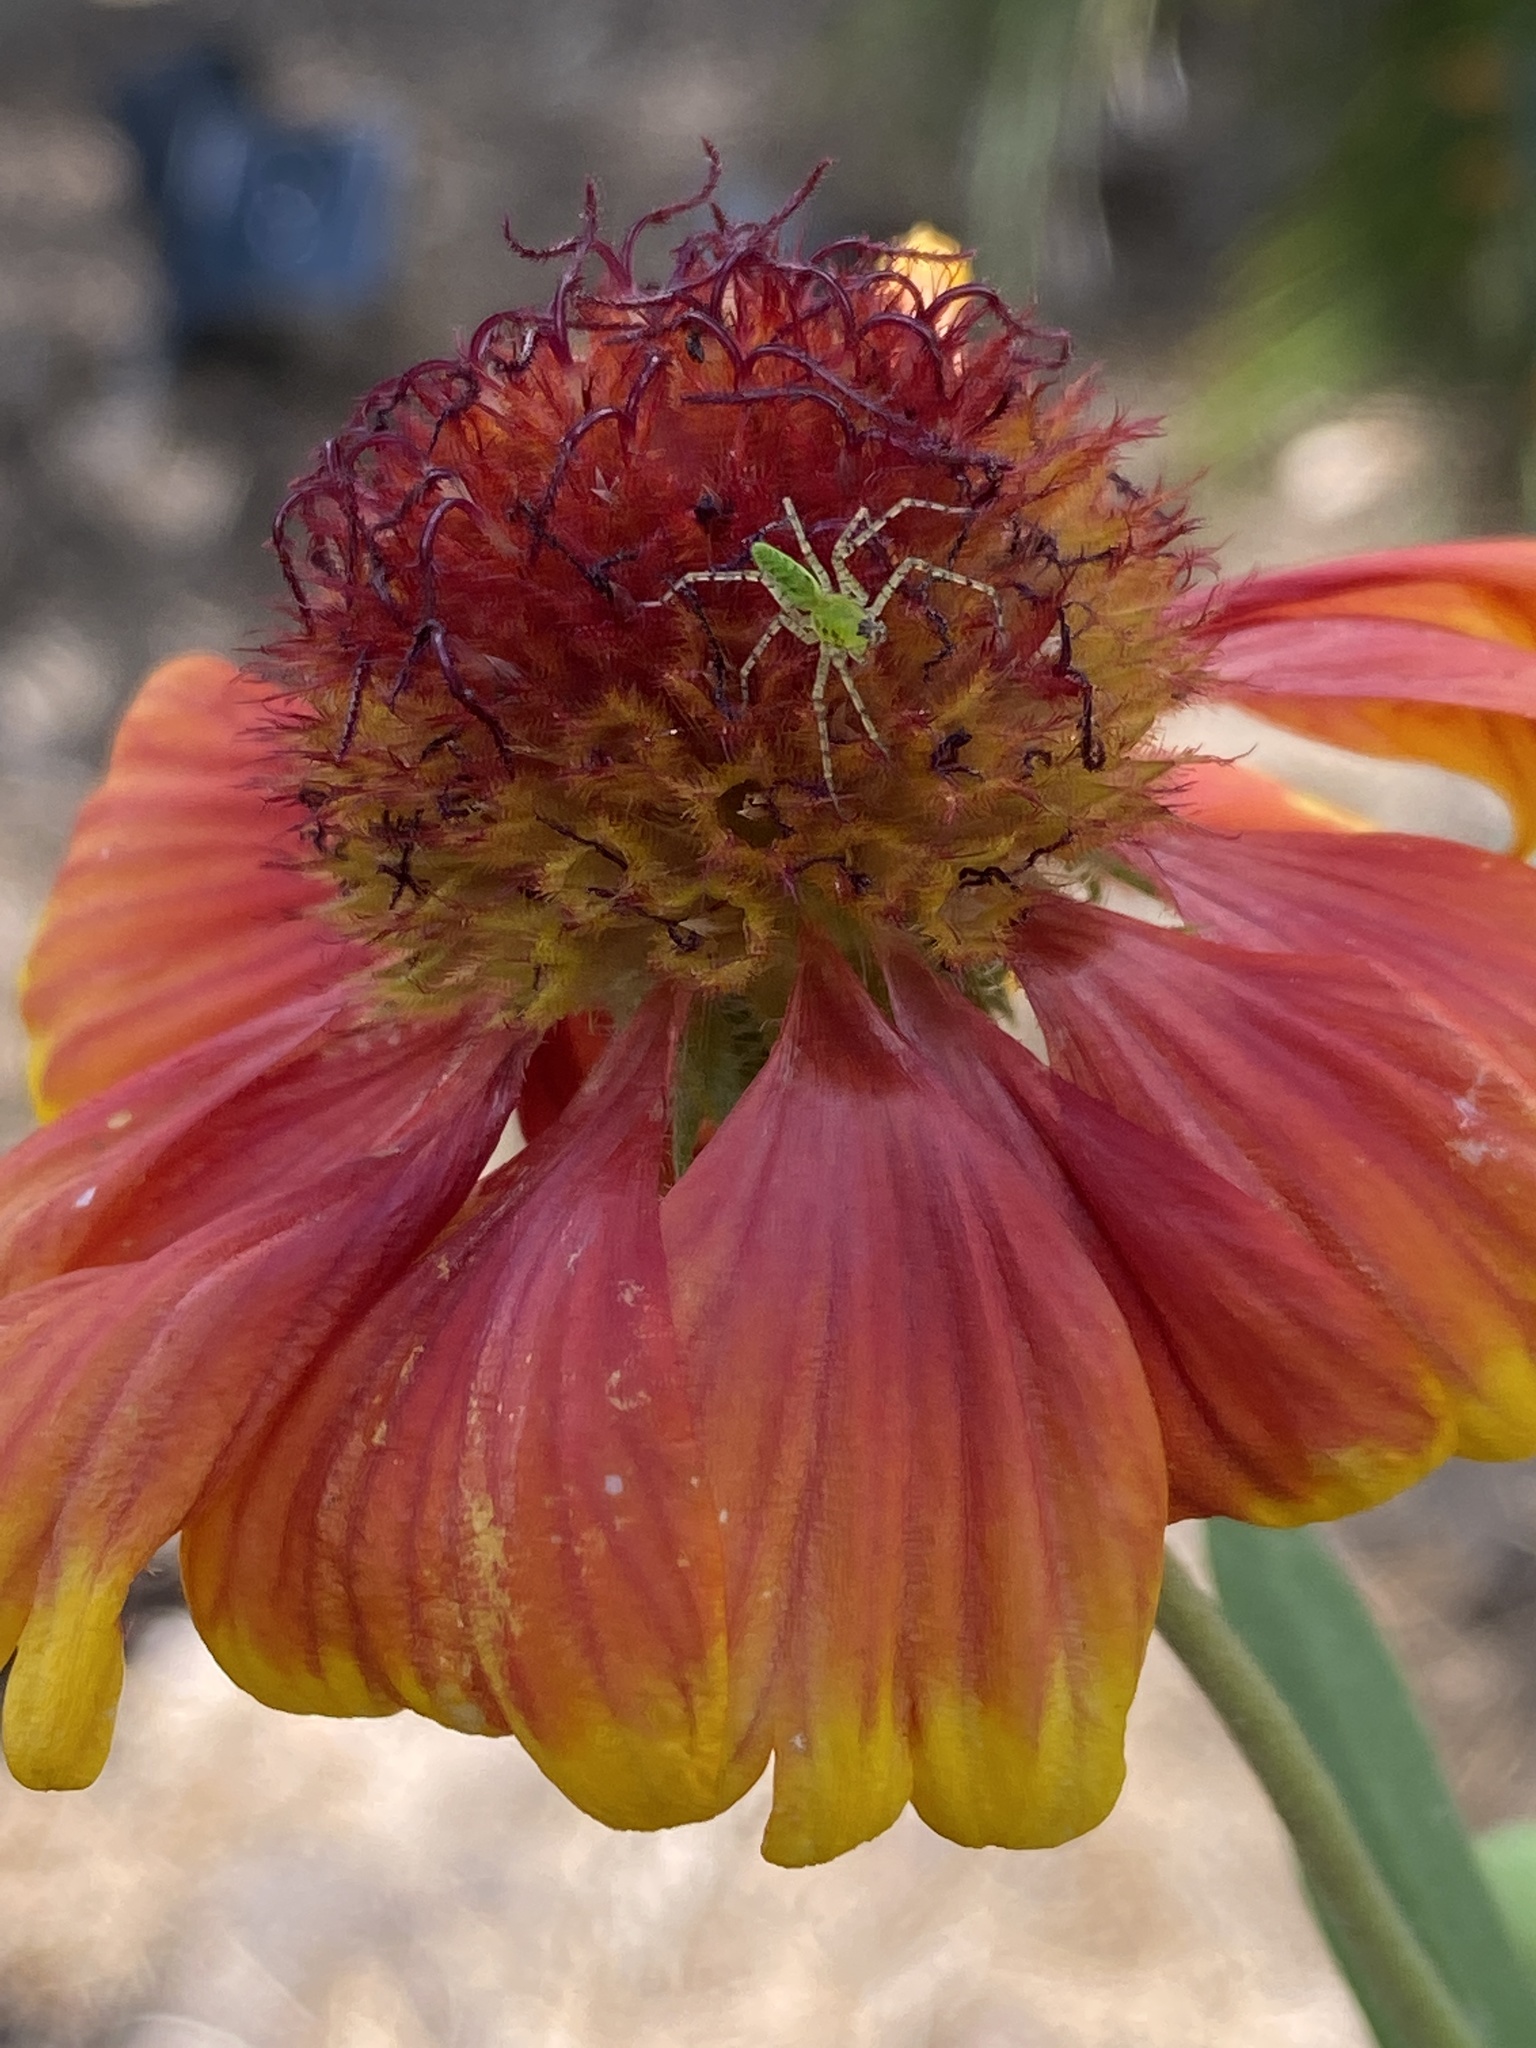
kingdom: Animalia
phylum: Arthropoda
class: Arachnida
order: Araneae
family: Oxyopidae
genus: Peucetia
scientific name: Peucetia viridans
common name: Lynx spiders
